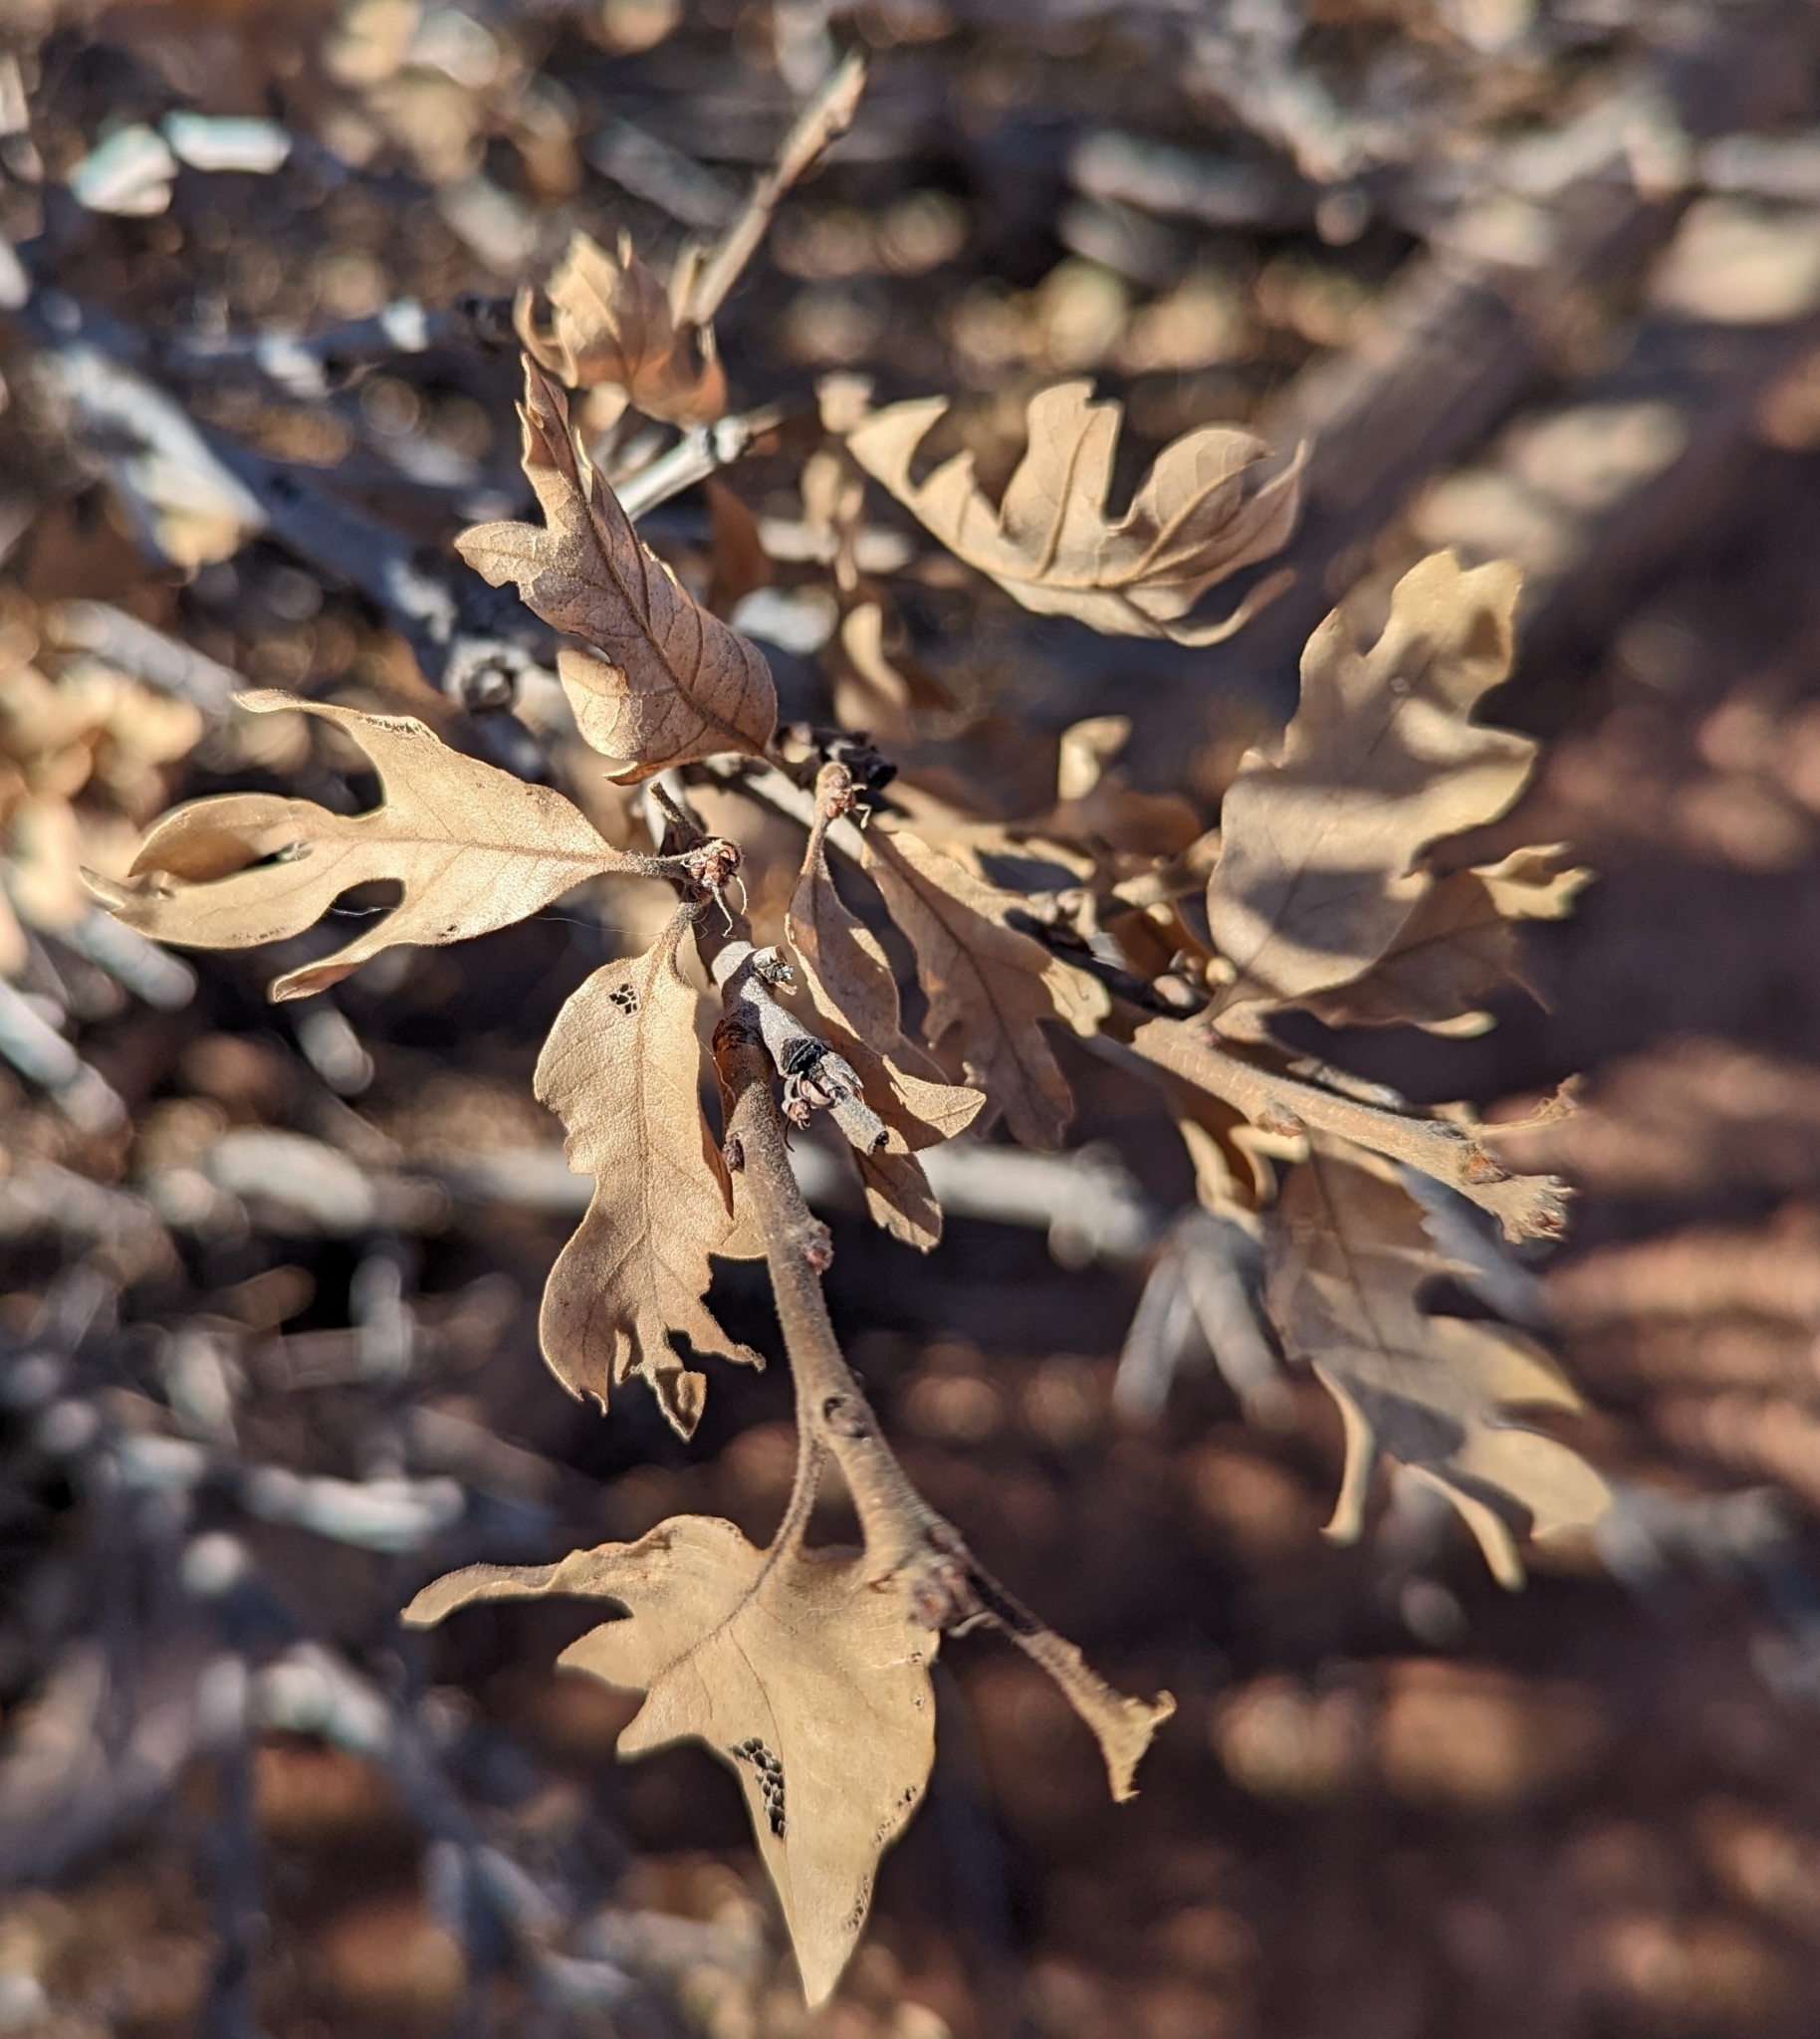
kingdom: Plantae
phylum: Tracheophyta
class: Magnoliopsida
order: Fagales
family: Fagaceae
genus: Quercus
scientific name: Quercus gambelii
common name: Gambel oak
